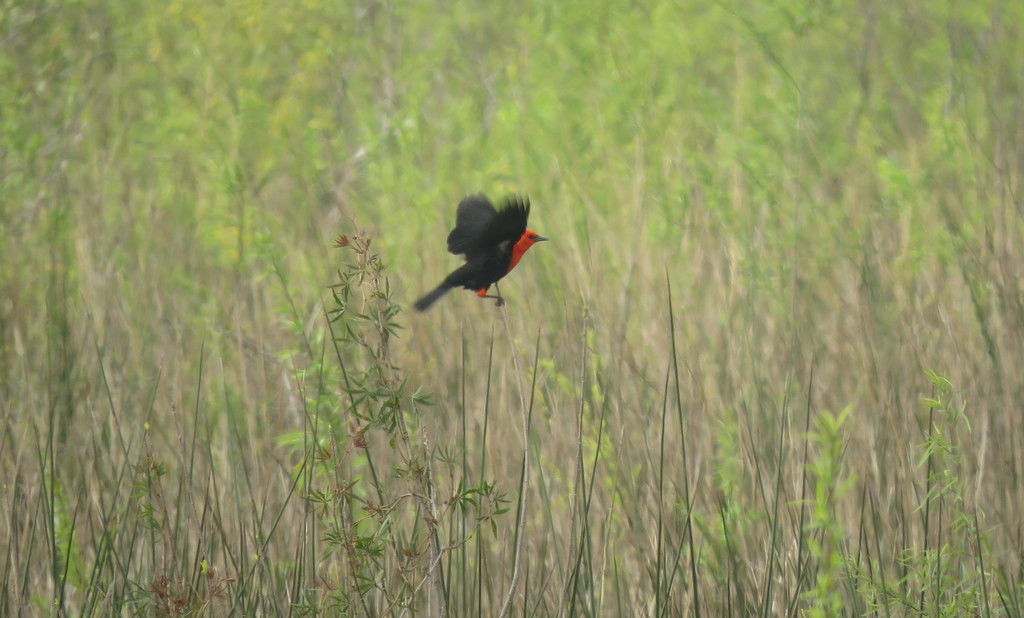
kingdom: Animalia
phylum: Chordata
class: Aves
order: Passeriformes
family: Icteridae
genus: Amblyramphus
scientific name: Amblyramphus holosericeus
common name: Scarlet-headed blackbird
